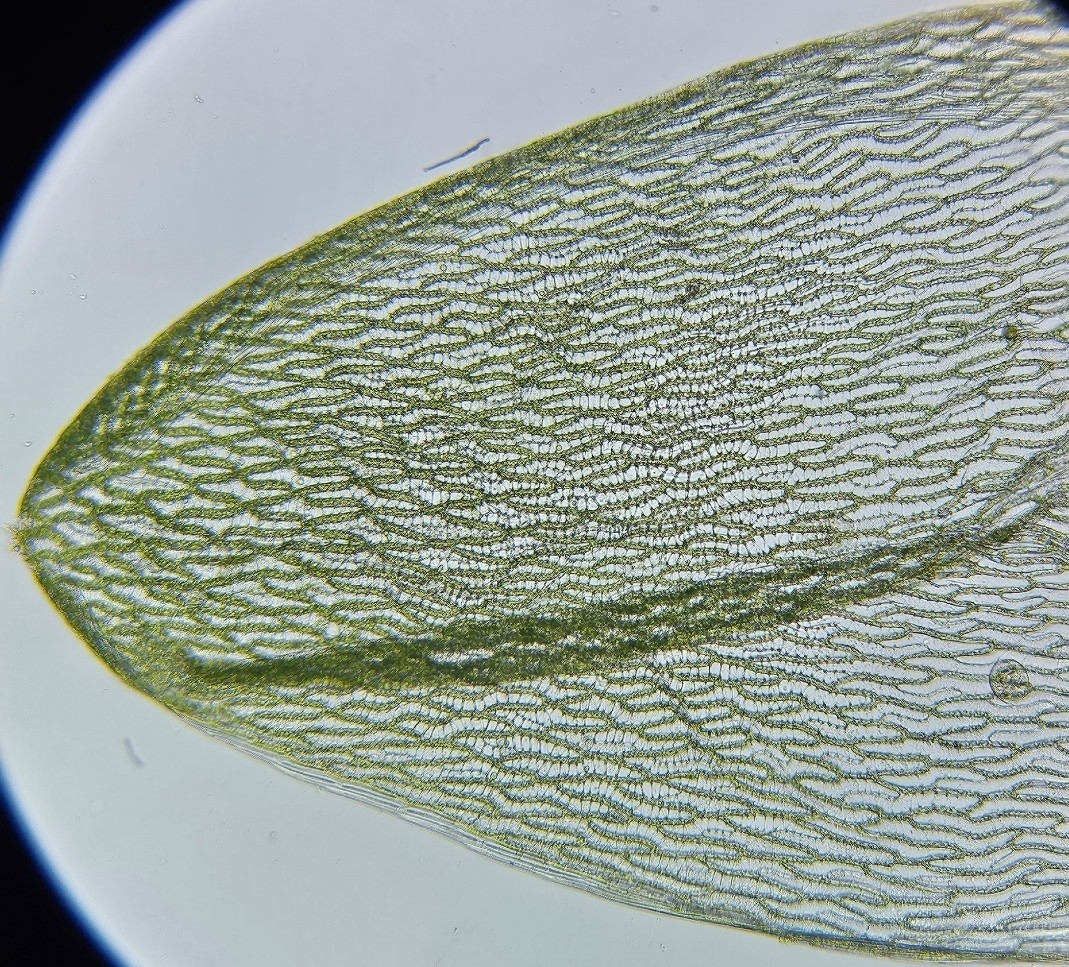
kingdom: Plantae
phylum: Bryophyta
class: Sphagnopsida
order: Sphagnales
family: Sphagnaceae
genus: Sphagnum
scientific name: Sphagnum denticulatum
